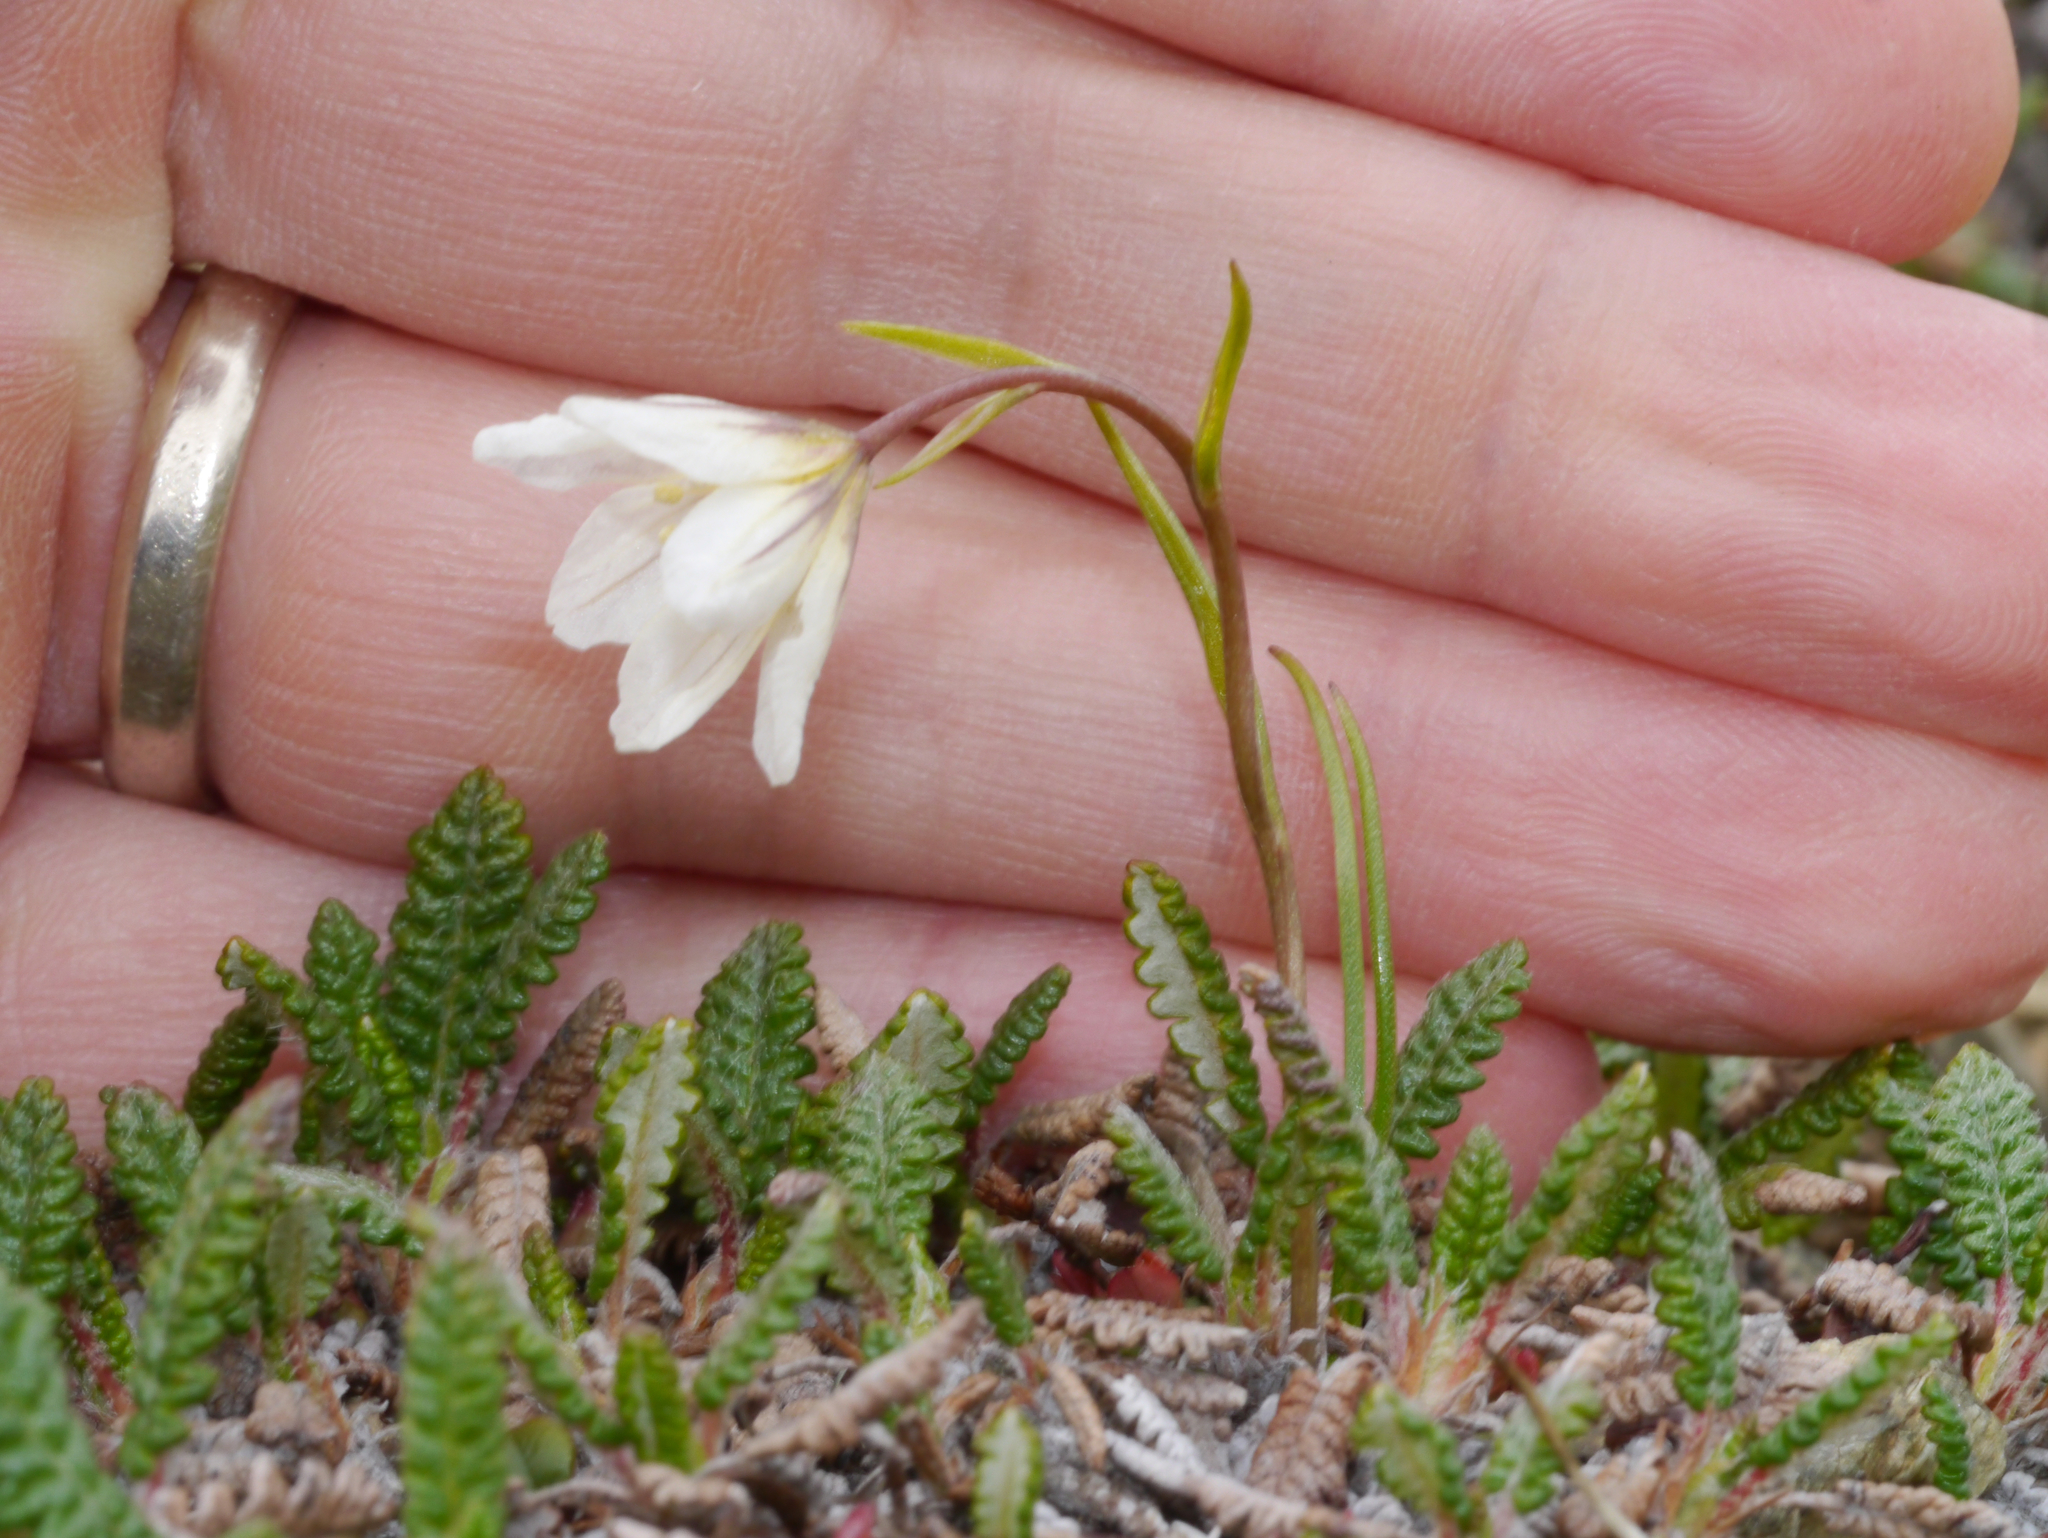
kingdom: Plantae
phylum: Tracheophyta
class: Liliopsida
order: Liliales
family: Liliaceae
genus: Gagea
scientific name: Gagea serotina
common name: Snowdon lily
